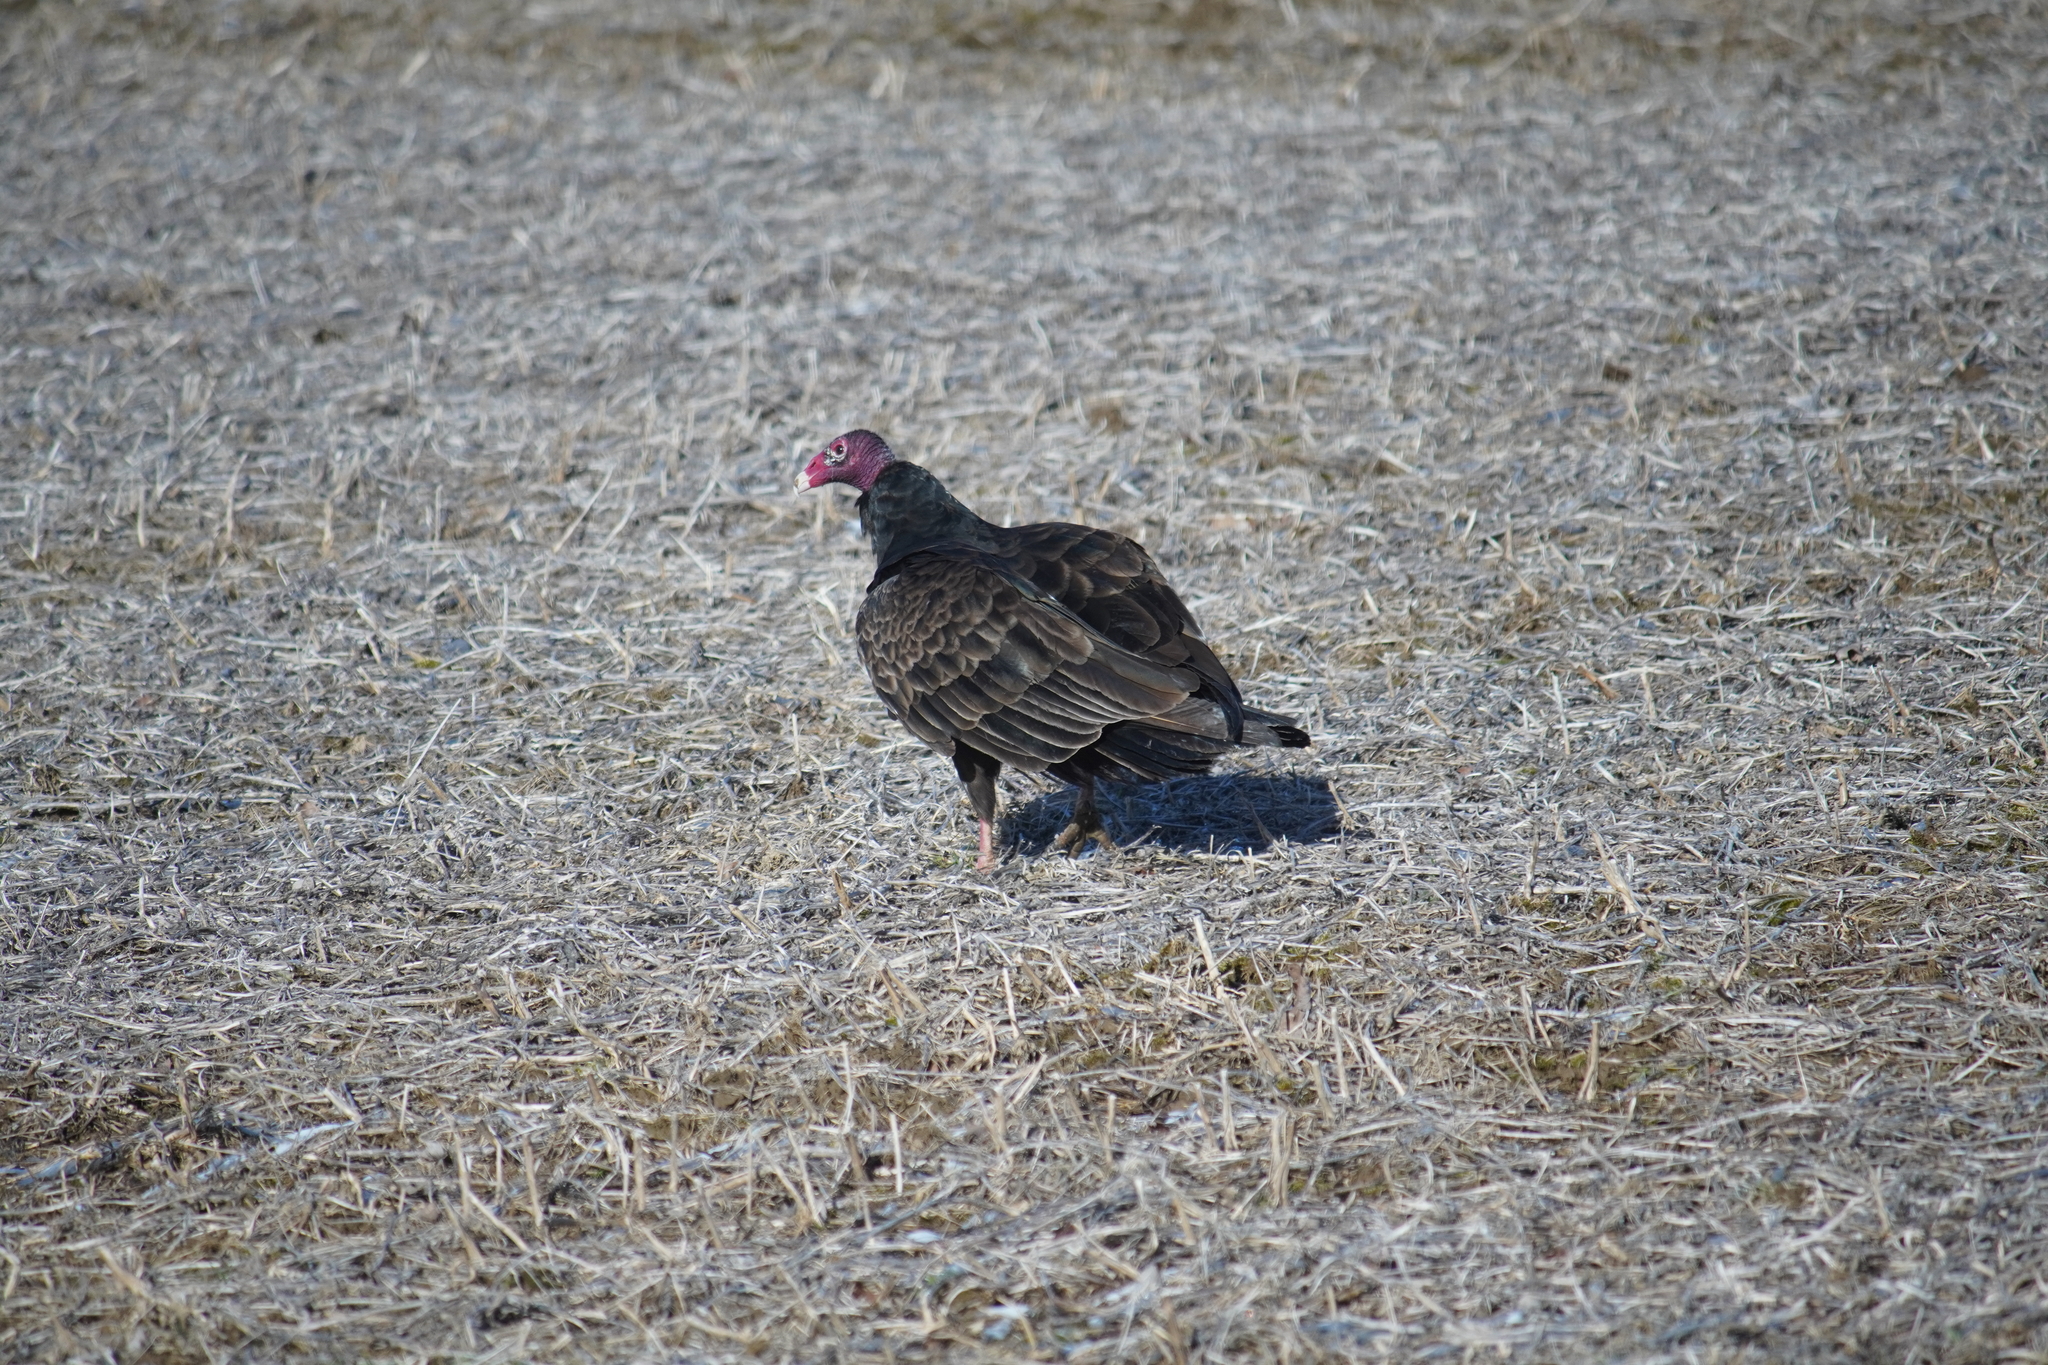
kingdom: Animalia
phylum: Chordata
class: Aves
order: Accipitriformes
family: Cathartidae
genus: Cathartes
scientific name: Cathartes aura
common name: Turkey vulture
